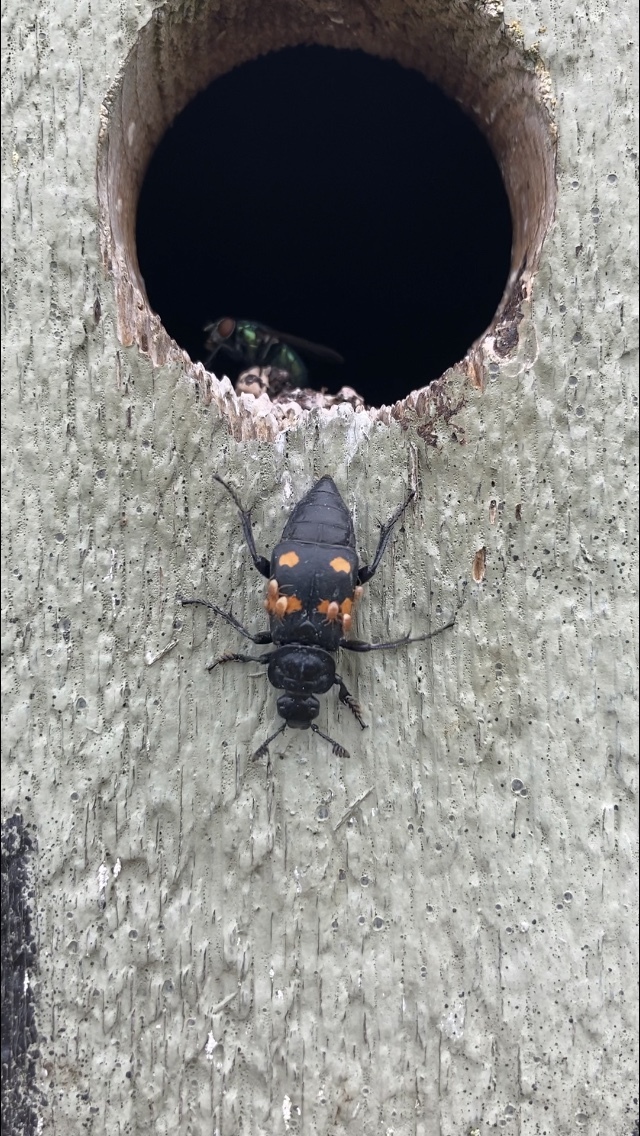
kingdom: Animalia
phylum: Arthropoda
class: Insecta
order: Coleoptera
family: Staphylinidae
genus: Nicrophorus
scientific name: Nicrophorus defodiens
